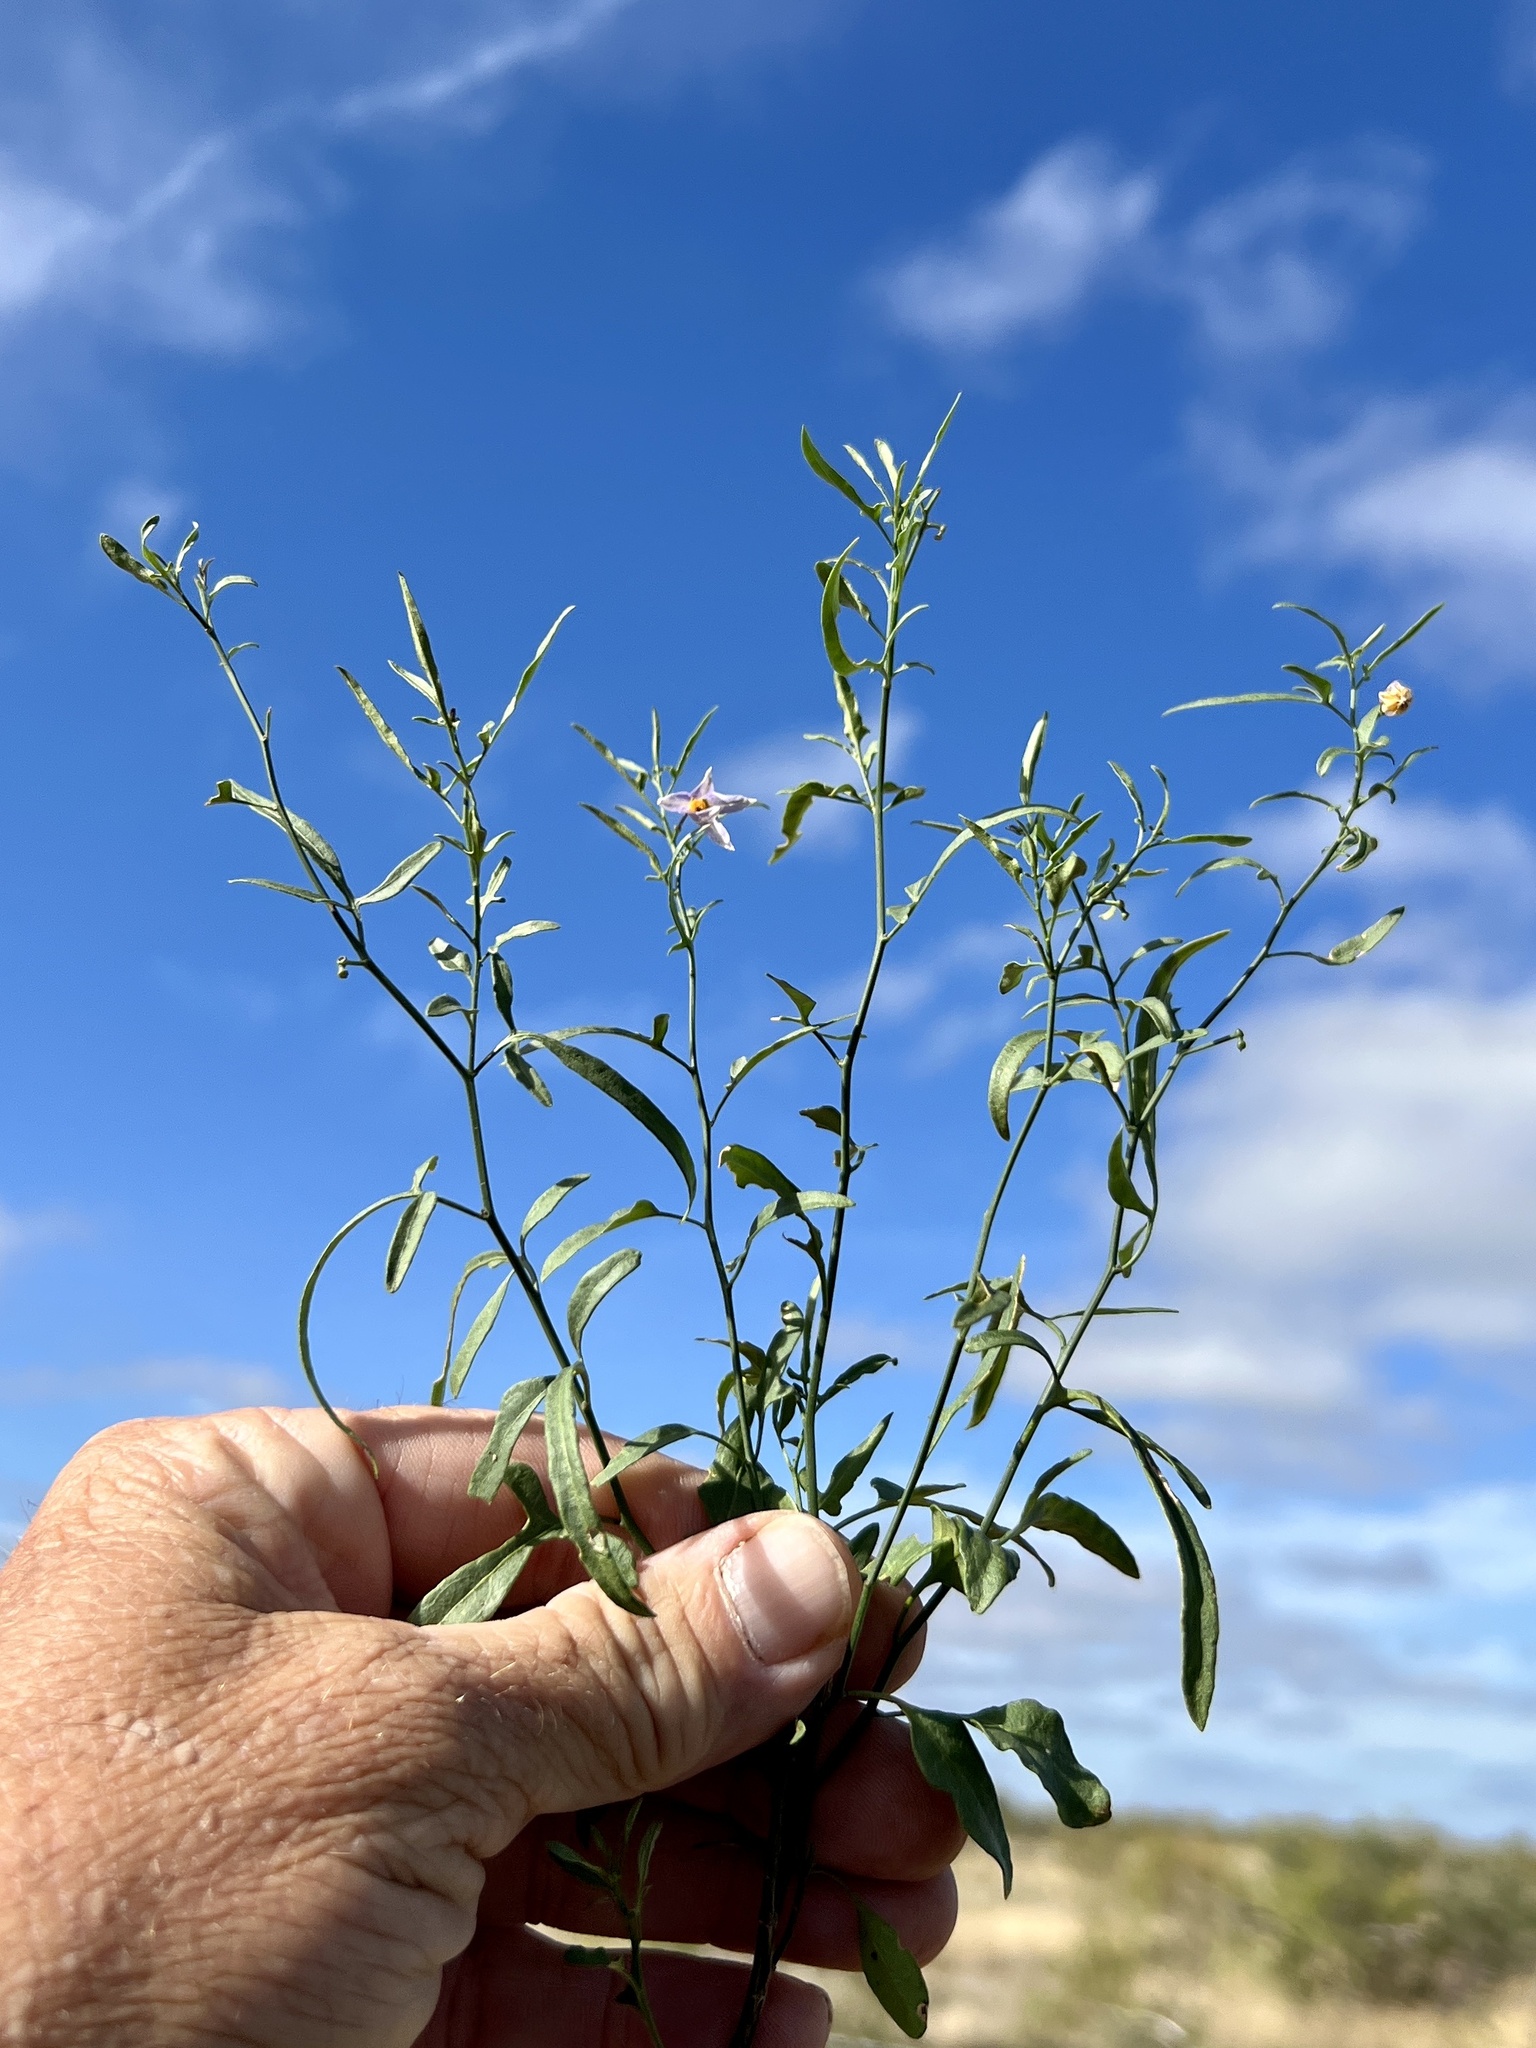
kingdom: Plantae
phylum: Tracheophyta
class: Magnoliopsida
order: Solanales
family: Solanaceae
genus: Solanum
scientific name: Solanum triquetrum
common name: Texas nightshade
